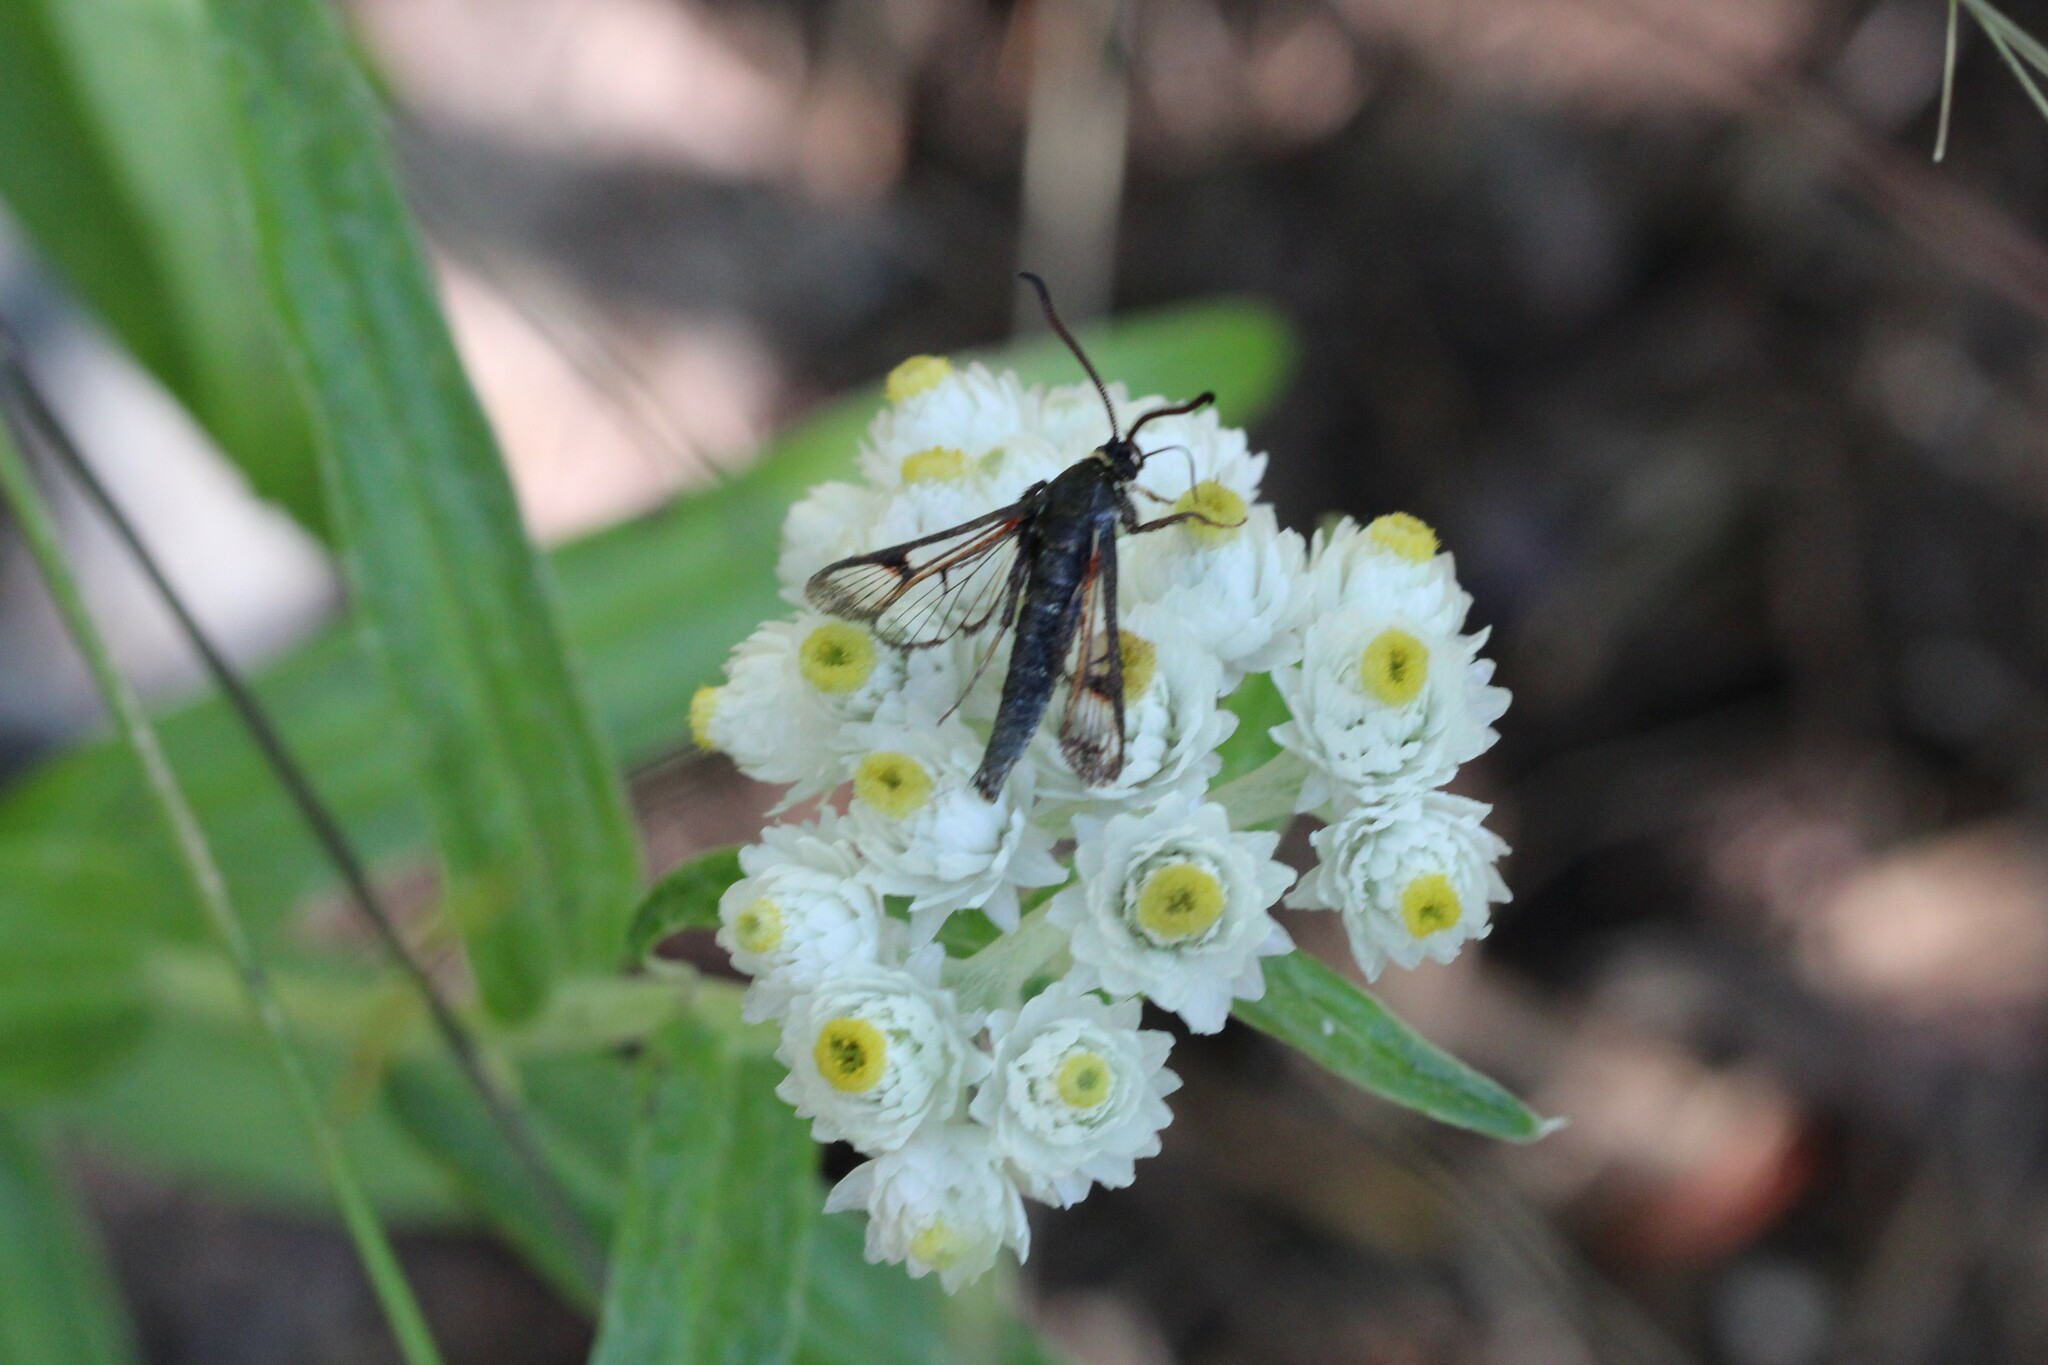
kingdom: Animalia
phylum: Arthropoda
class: Insecta
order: Lepidoptera
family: Sesiidae
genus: Albuna
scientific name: Albuna pyramidalis
